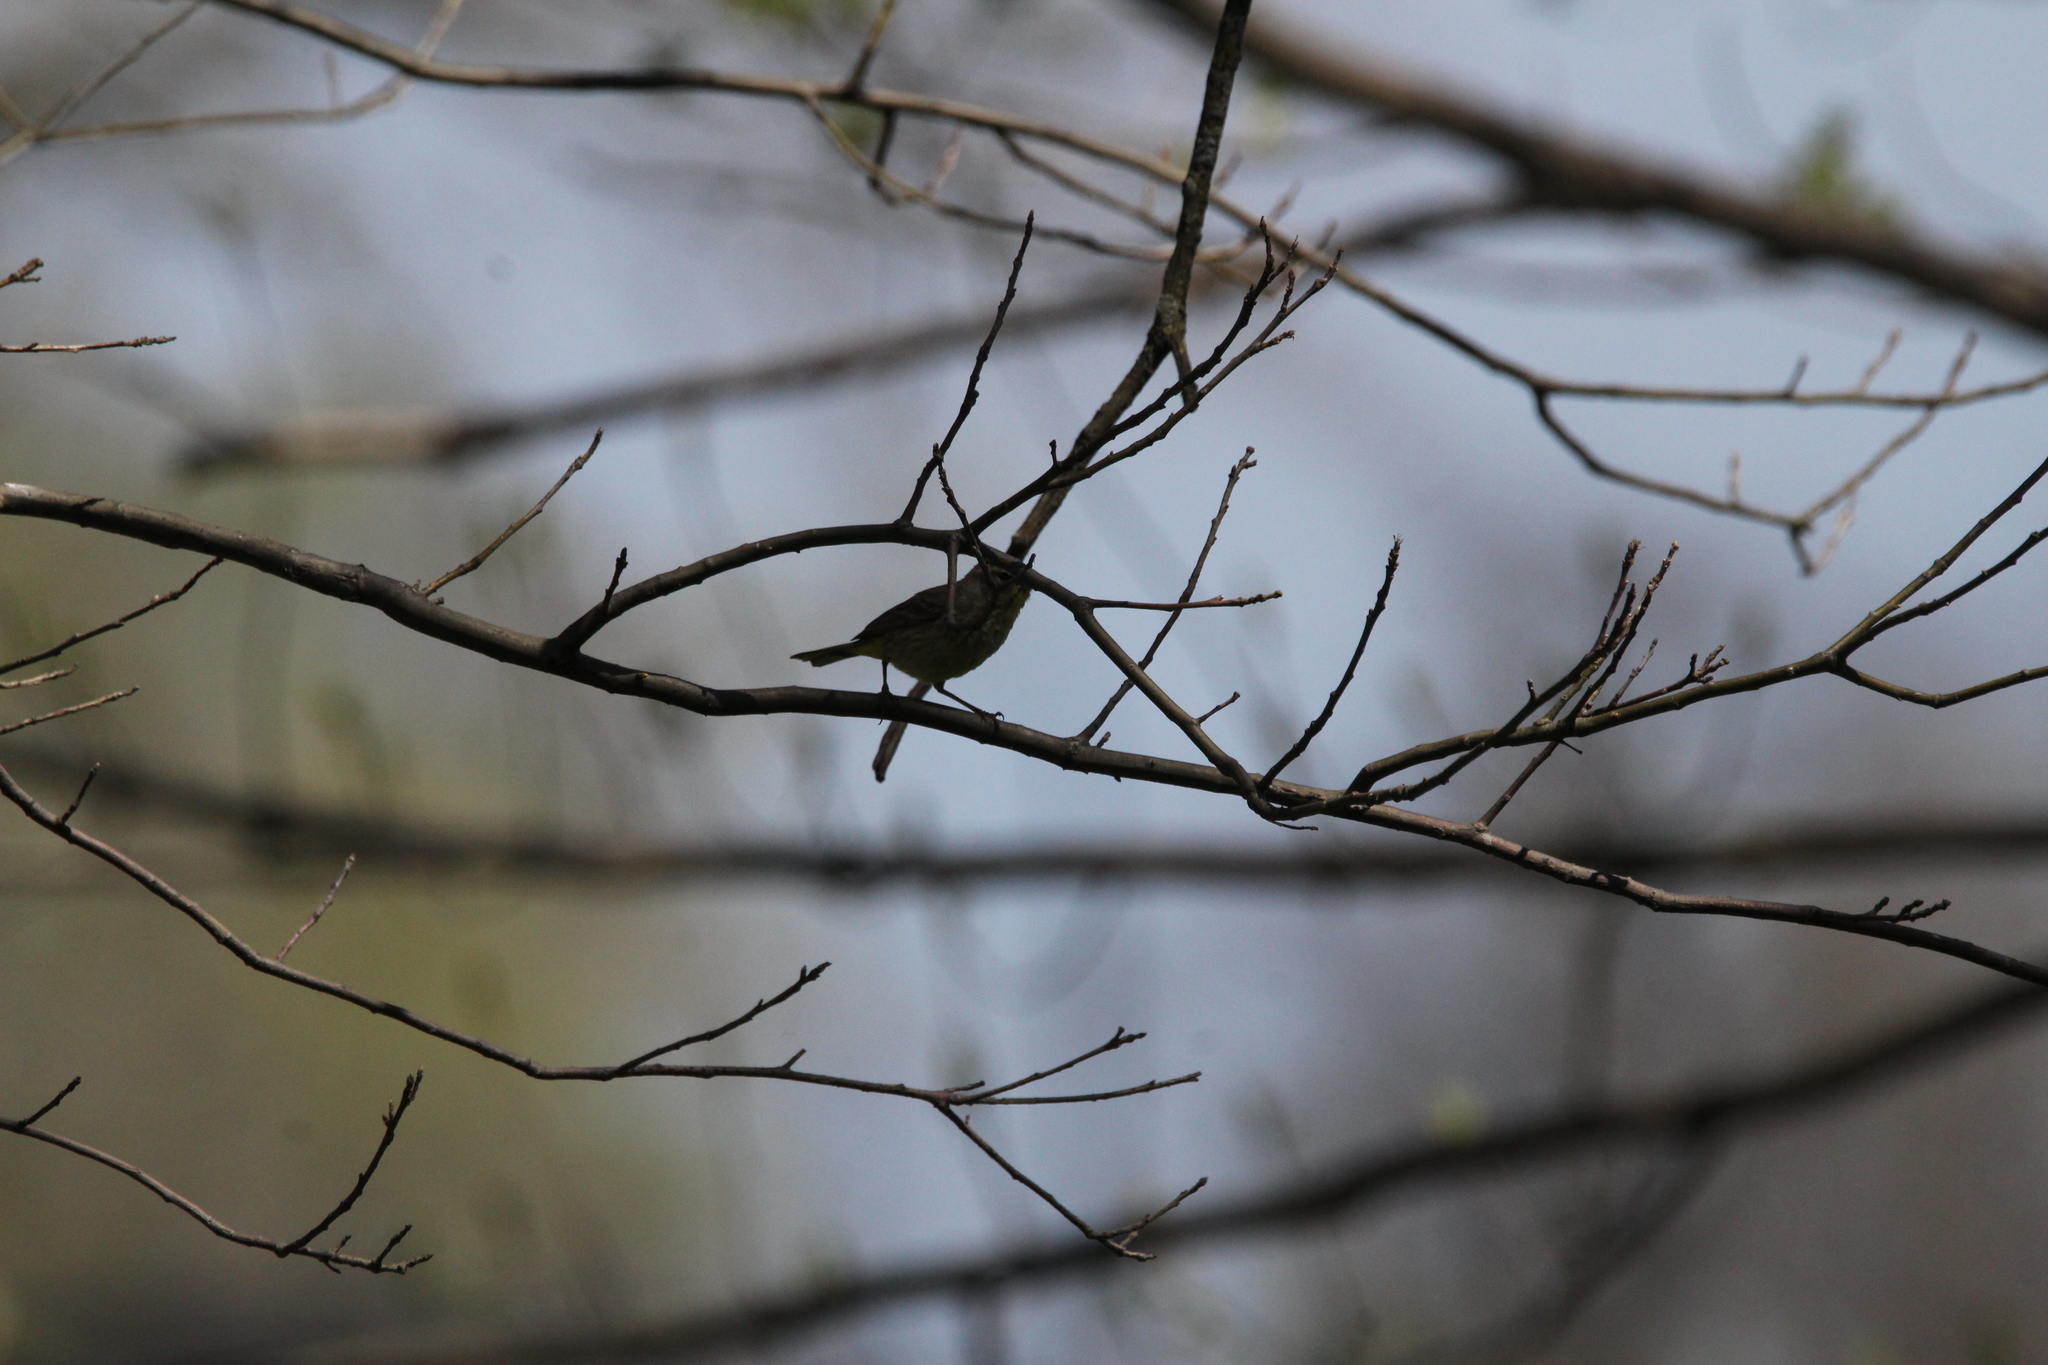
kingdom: Animalia
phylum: Chordata
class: Aves
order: Passeriformes
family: Parulidae
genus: Setophaga
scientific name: Setophaga palmarum
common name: Palm warbler
